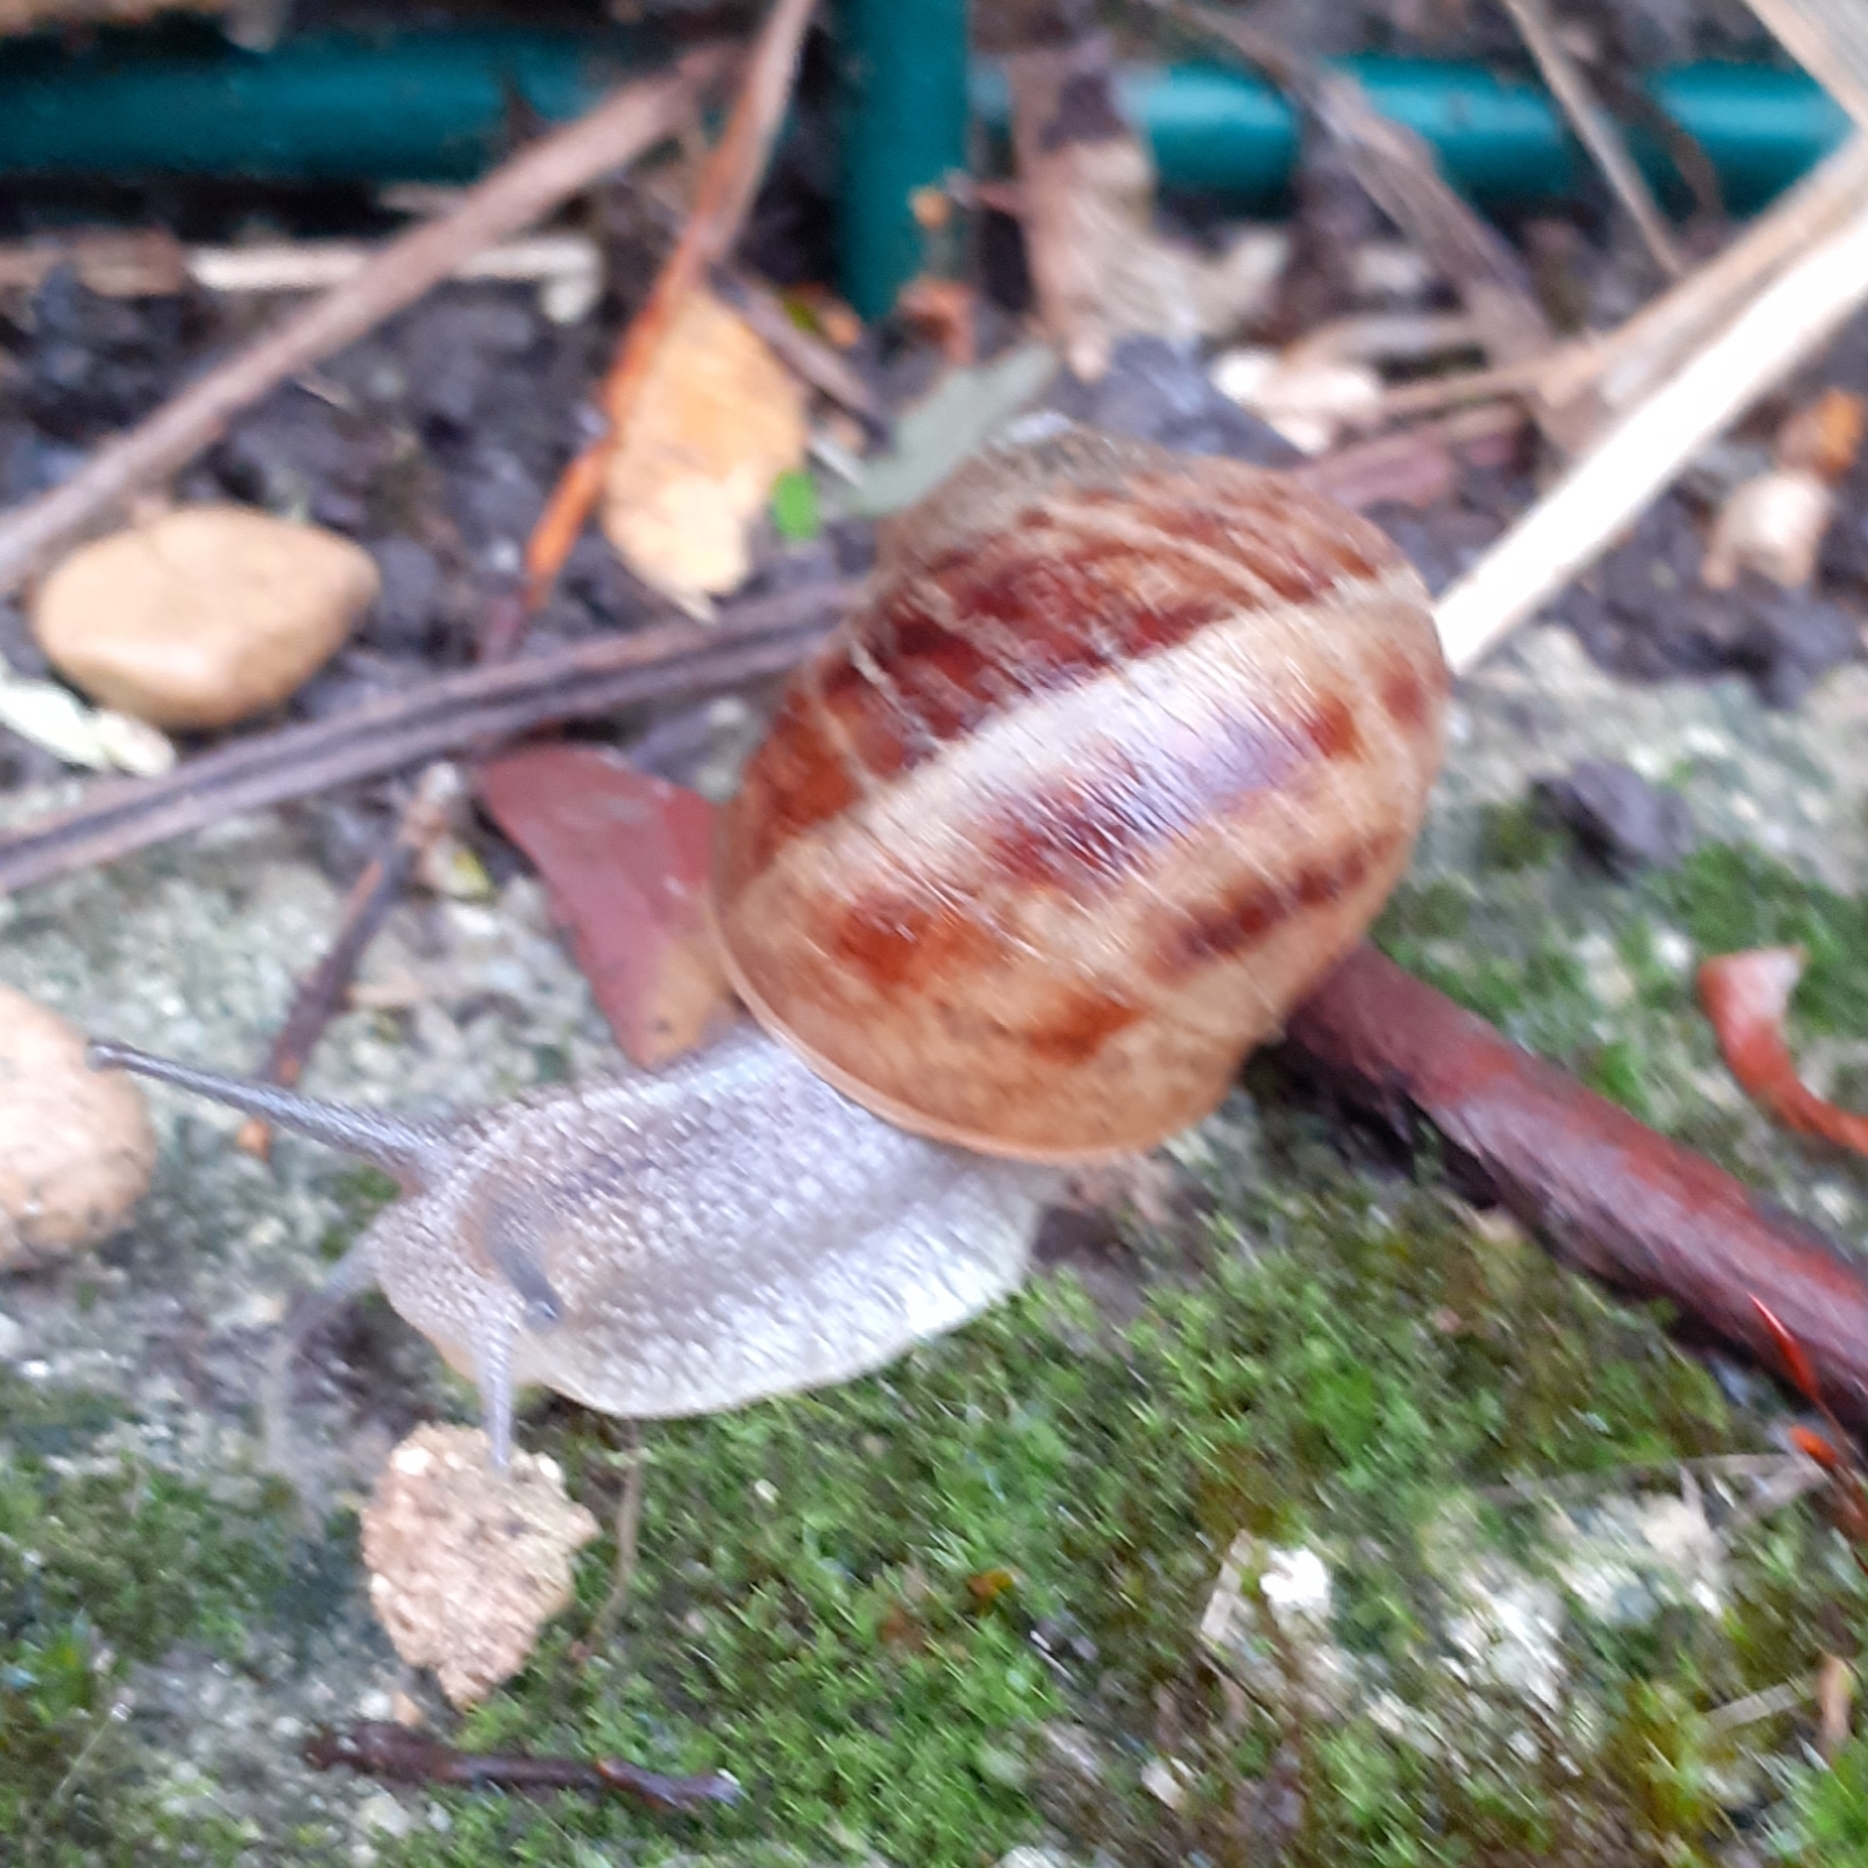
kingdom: Animalia
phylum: Mollusca
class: Gastropoda
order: Stylommatophora
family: Helicidae
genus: Cornu
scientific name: Cornu aspersum
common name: Brown garden snail
